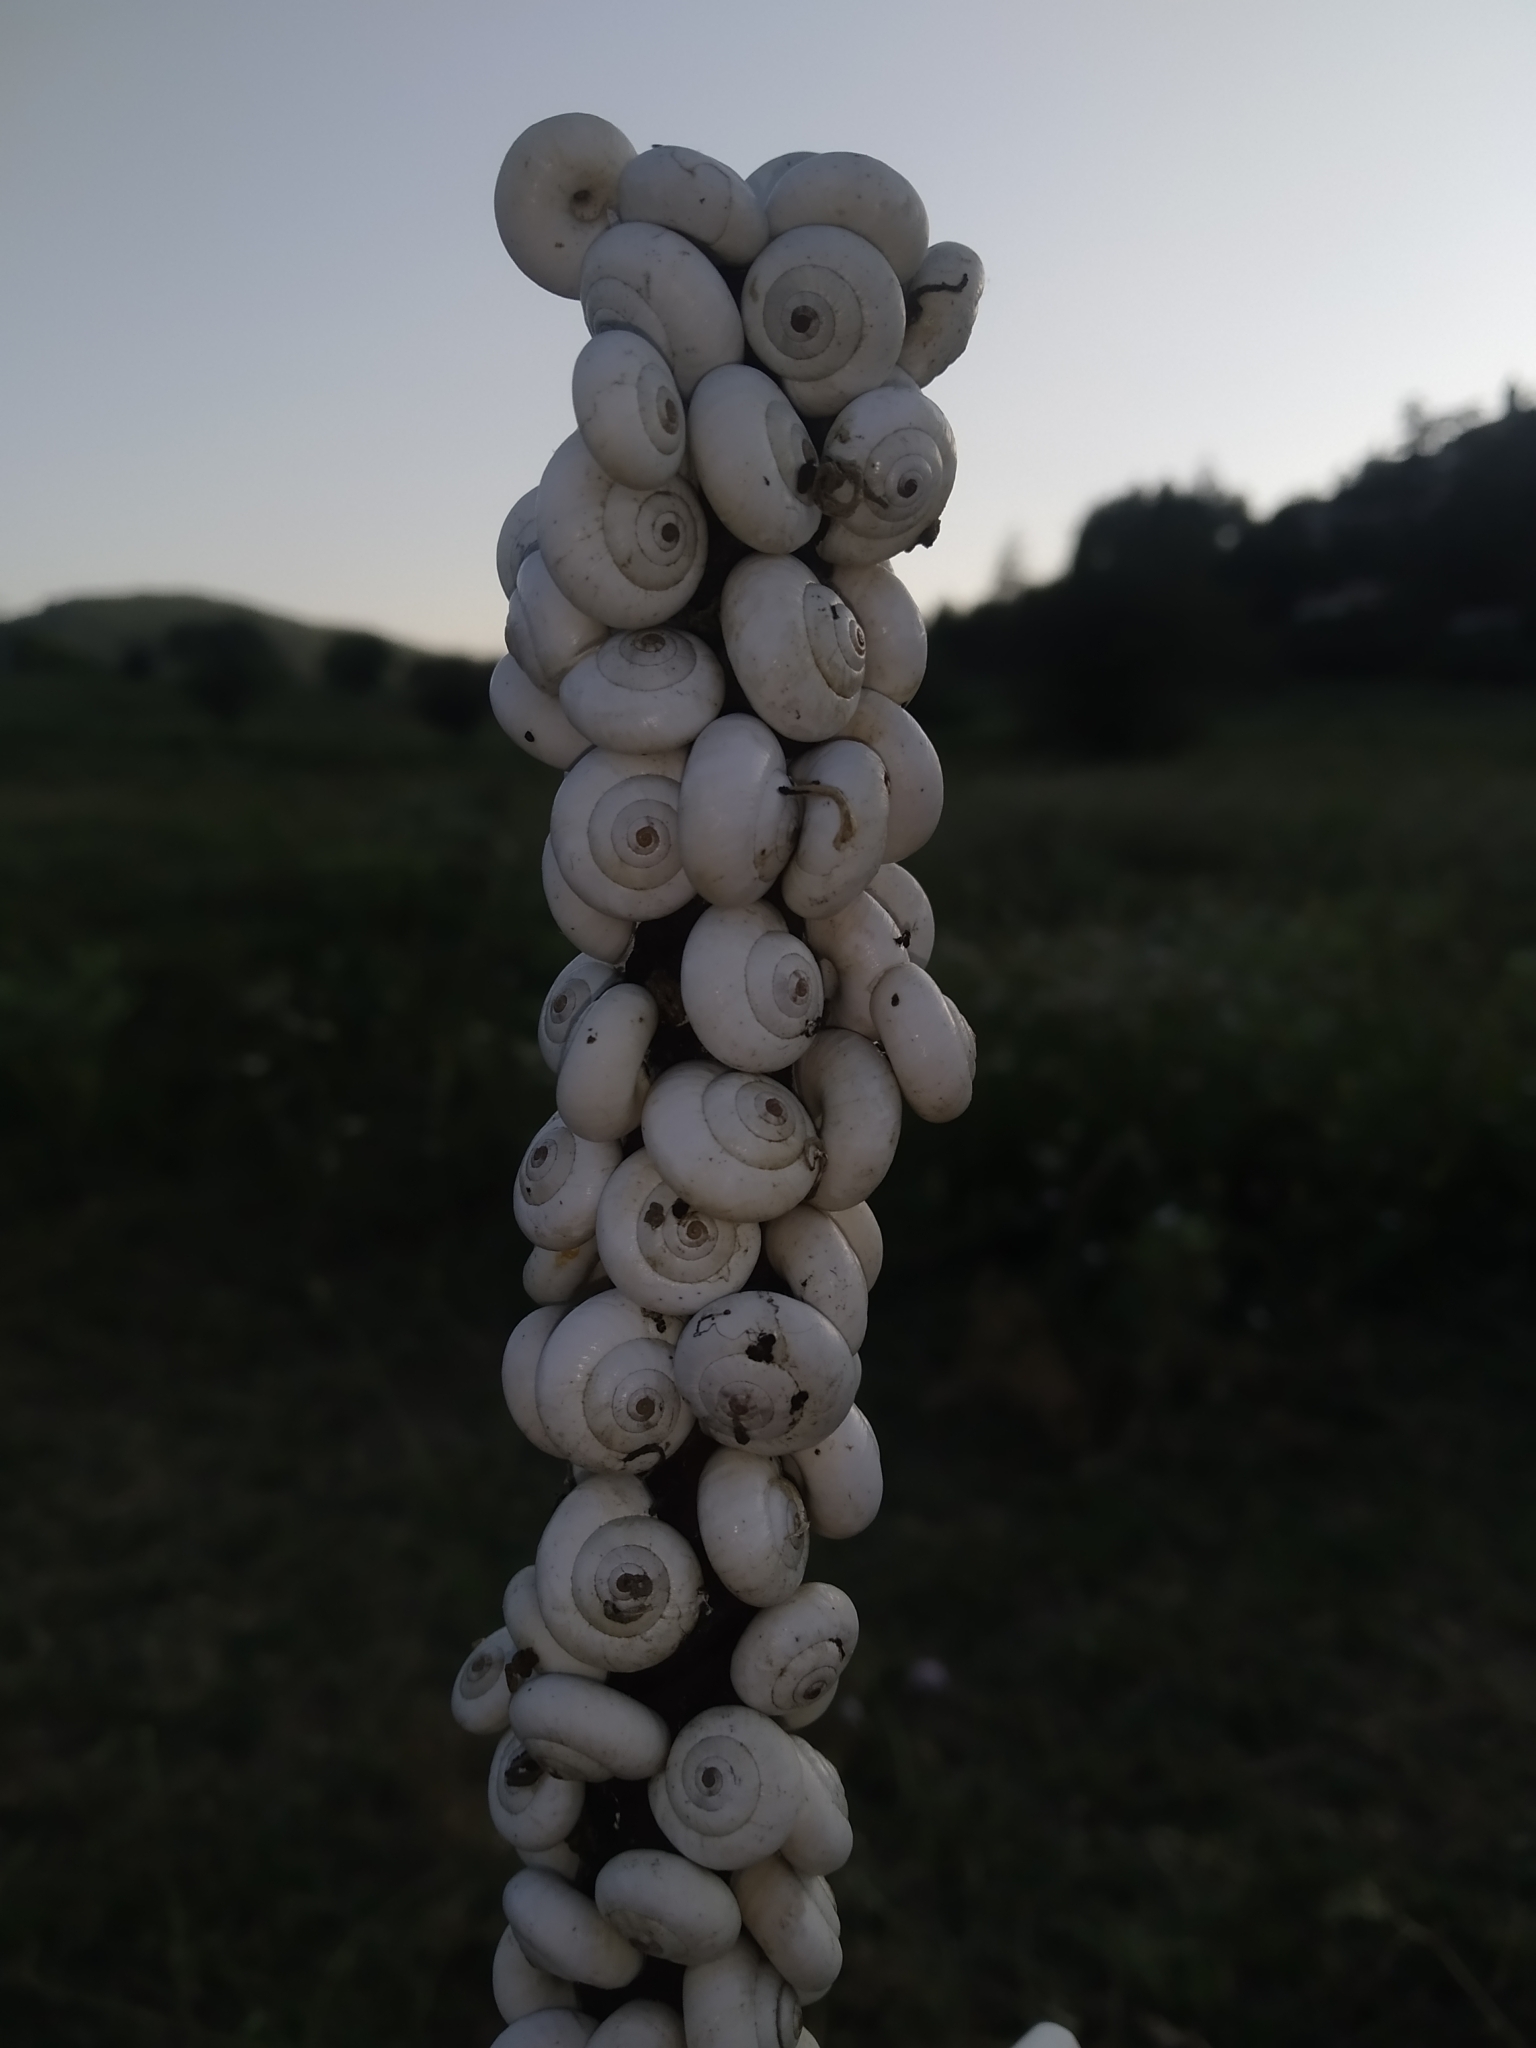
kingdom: Animalia
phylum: Mollusca
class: Gastropoda
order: Stylommatophora
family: Geomitridae
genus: Xeropicta
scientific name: Xeropicta derbentina
